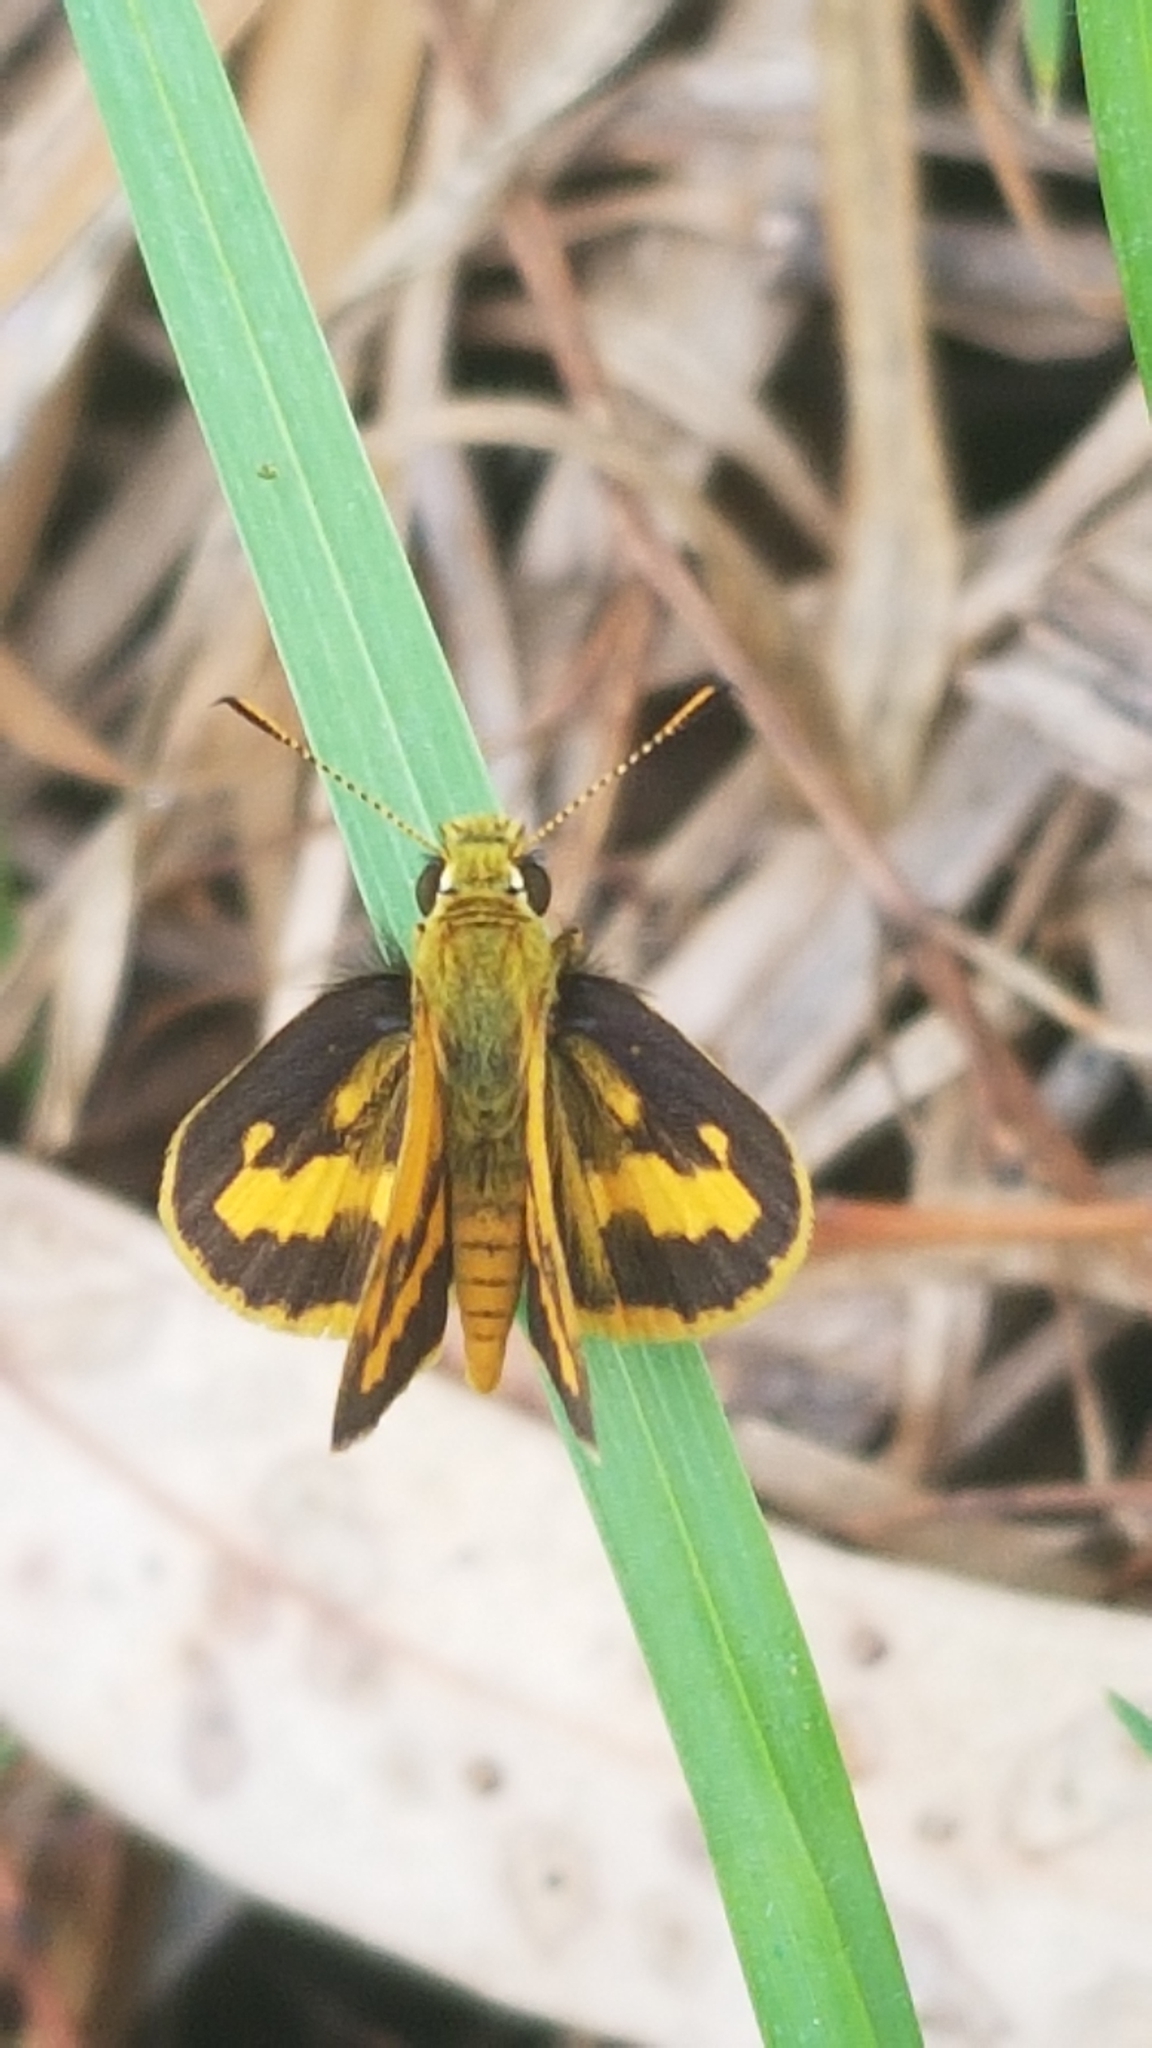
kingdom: Animalia
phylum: Arthropoda
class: Insecta
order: Lepidoptera
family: Hesperiidae
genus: Ocybadistes
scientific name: Ocybadistes walkeri
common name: Yellow-banded dart
